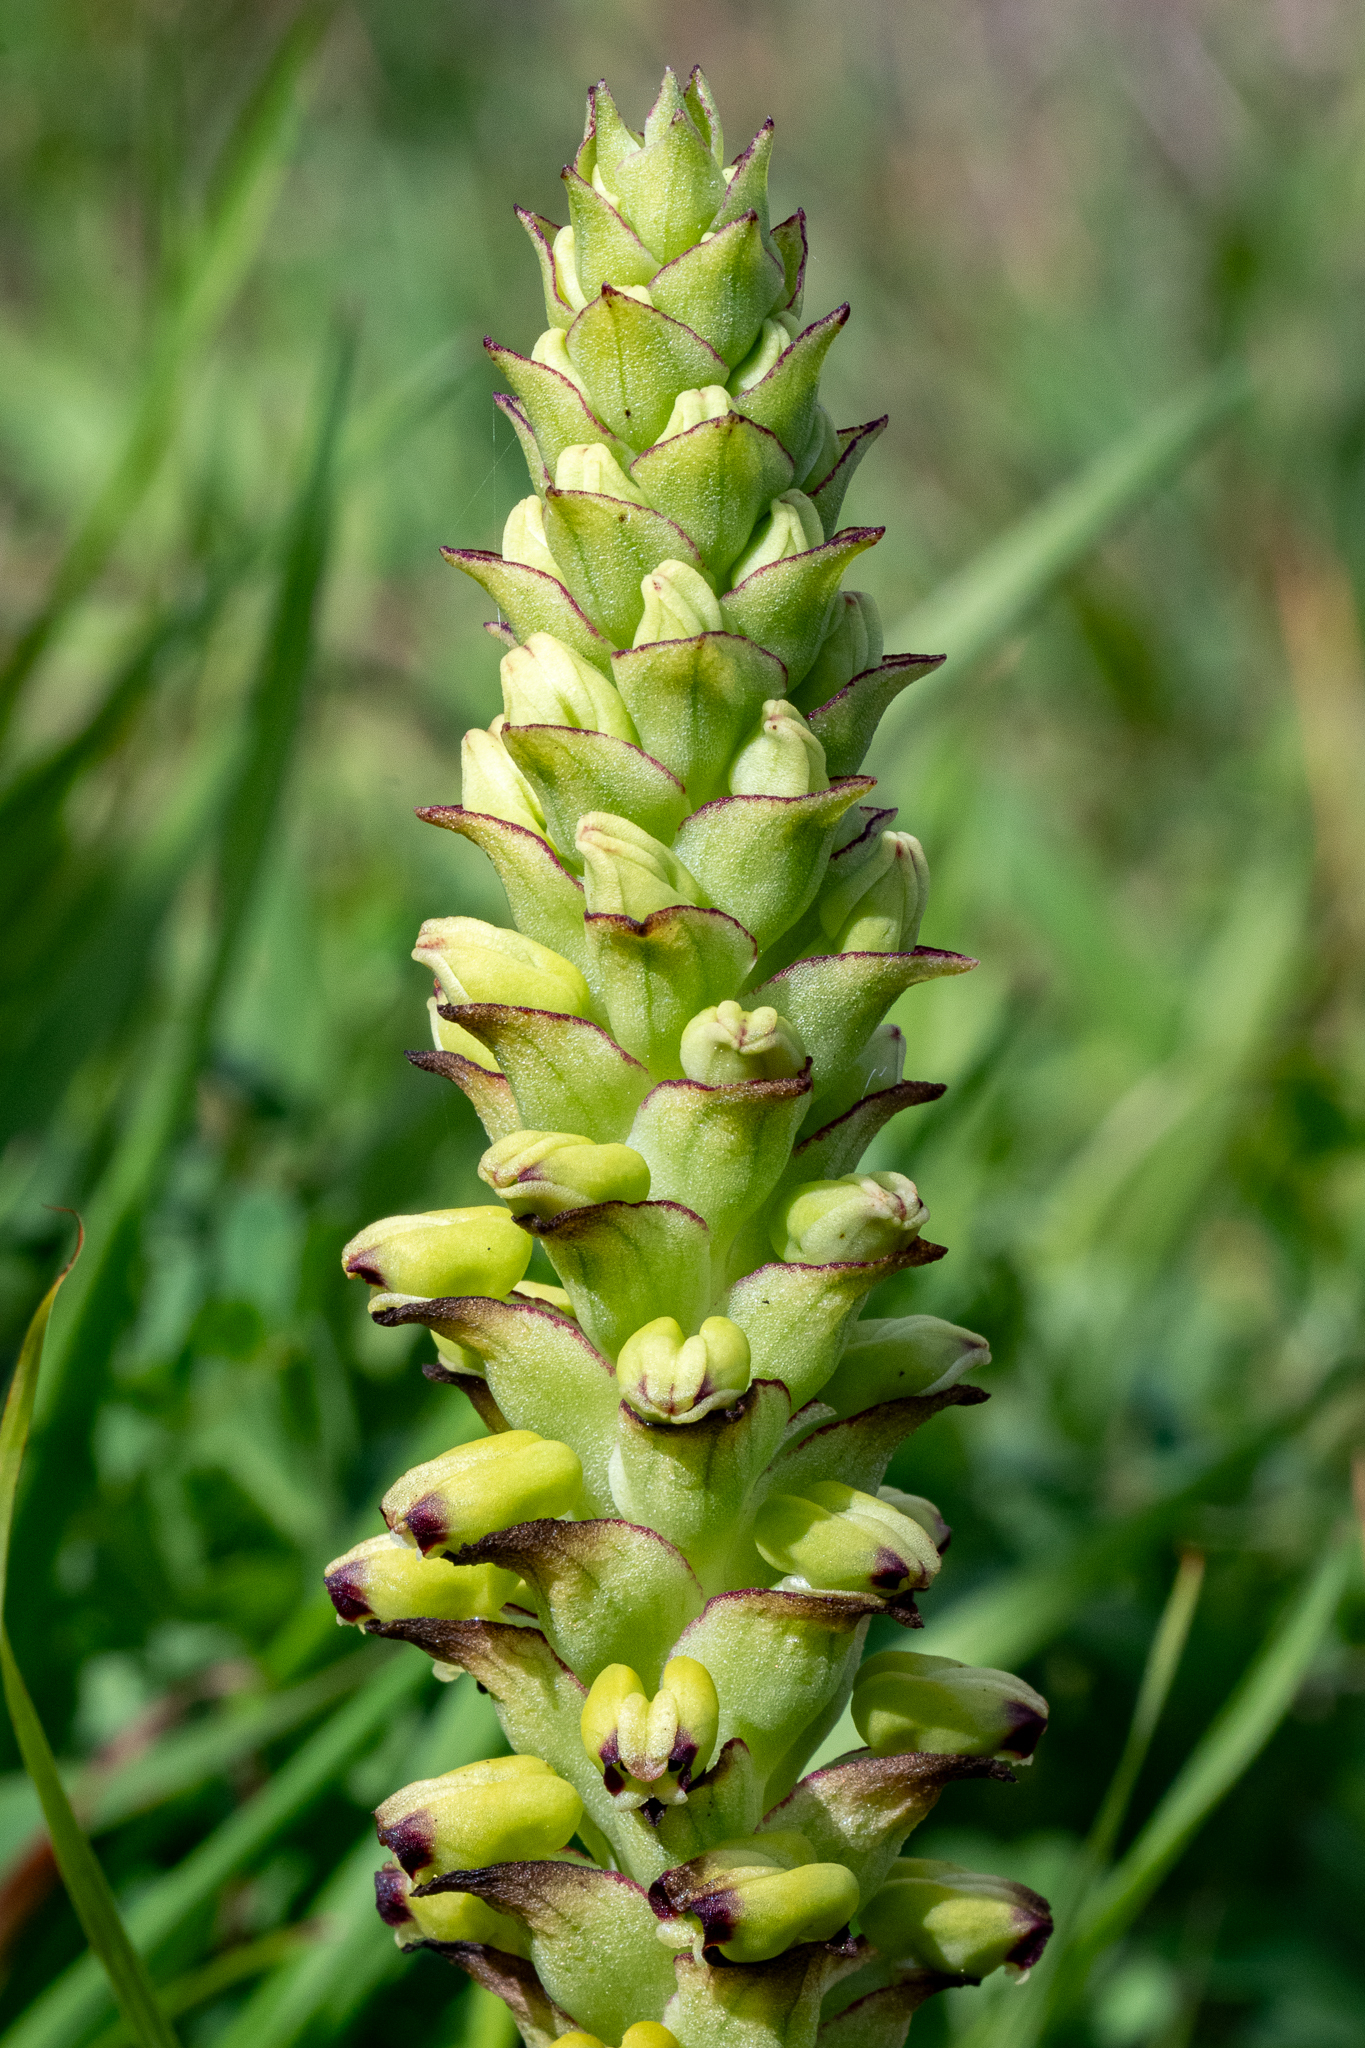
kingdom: Plantae
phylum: Tracheophyta
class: Liliopsida
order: Asparagales
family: Orchidaceae
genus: Corycium
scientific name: Corycium orobanchoides
